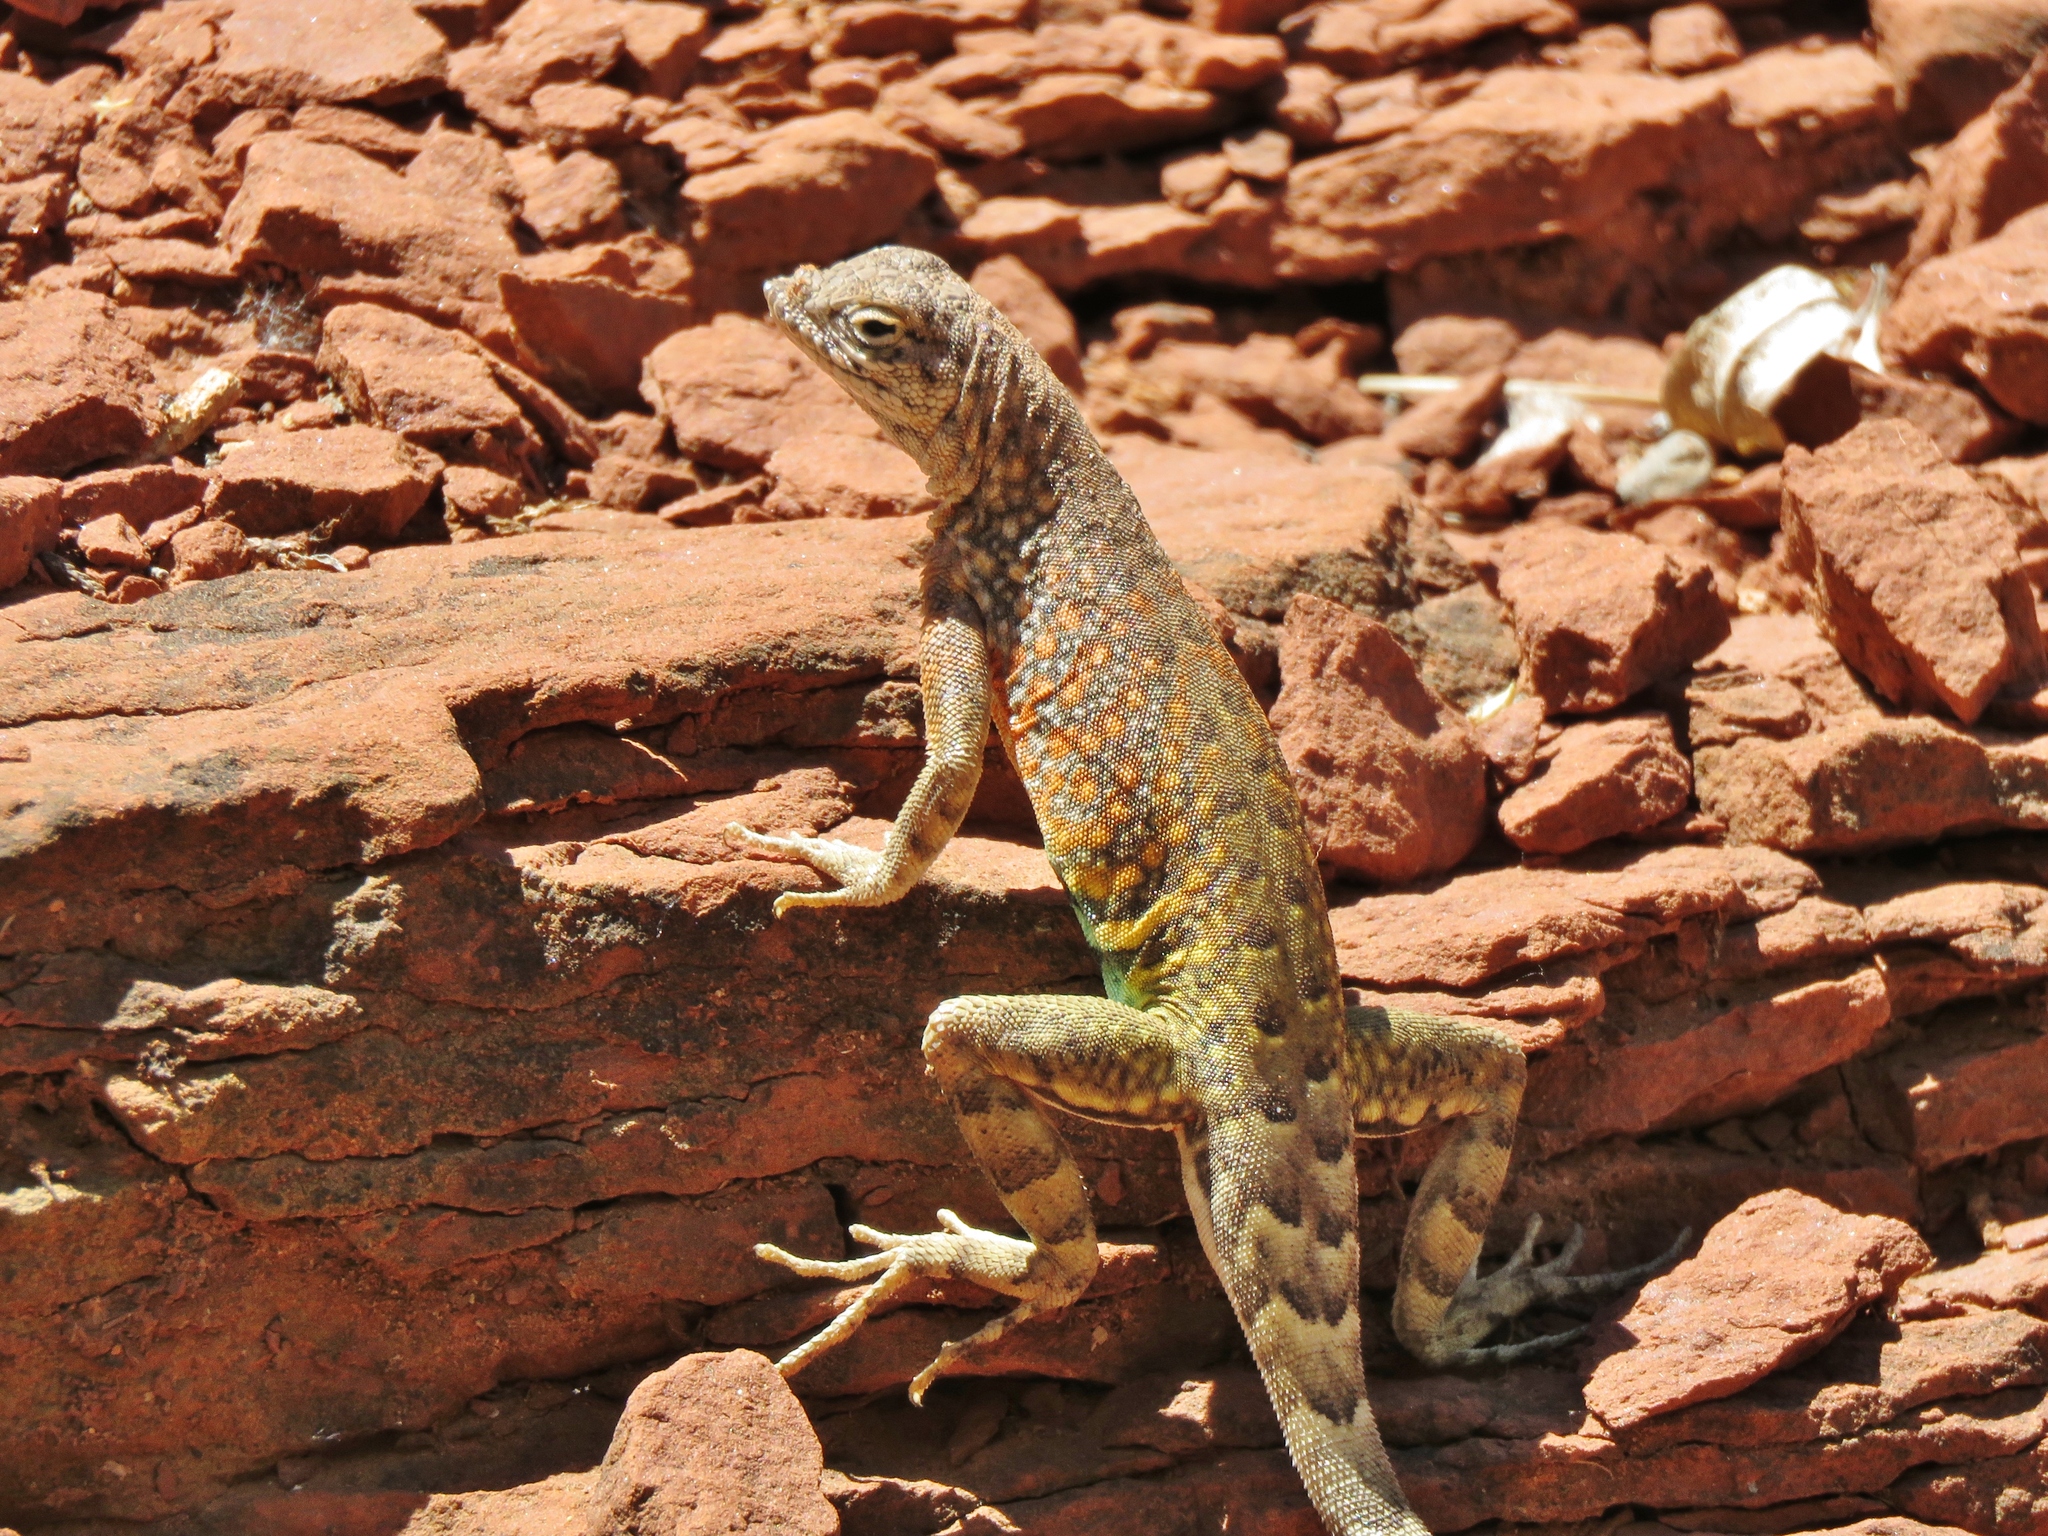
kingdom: Animalia
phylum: Chordata
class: Squamata
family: Phrynosomatidae
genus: Cophosaurus
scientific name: Cophosaurus texanus
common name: Greater earless lizard
